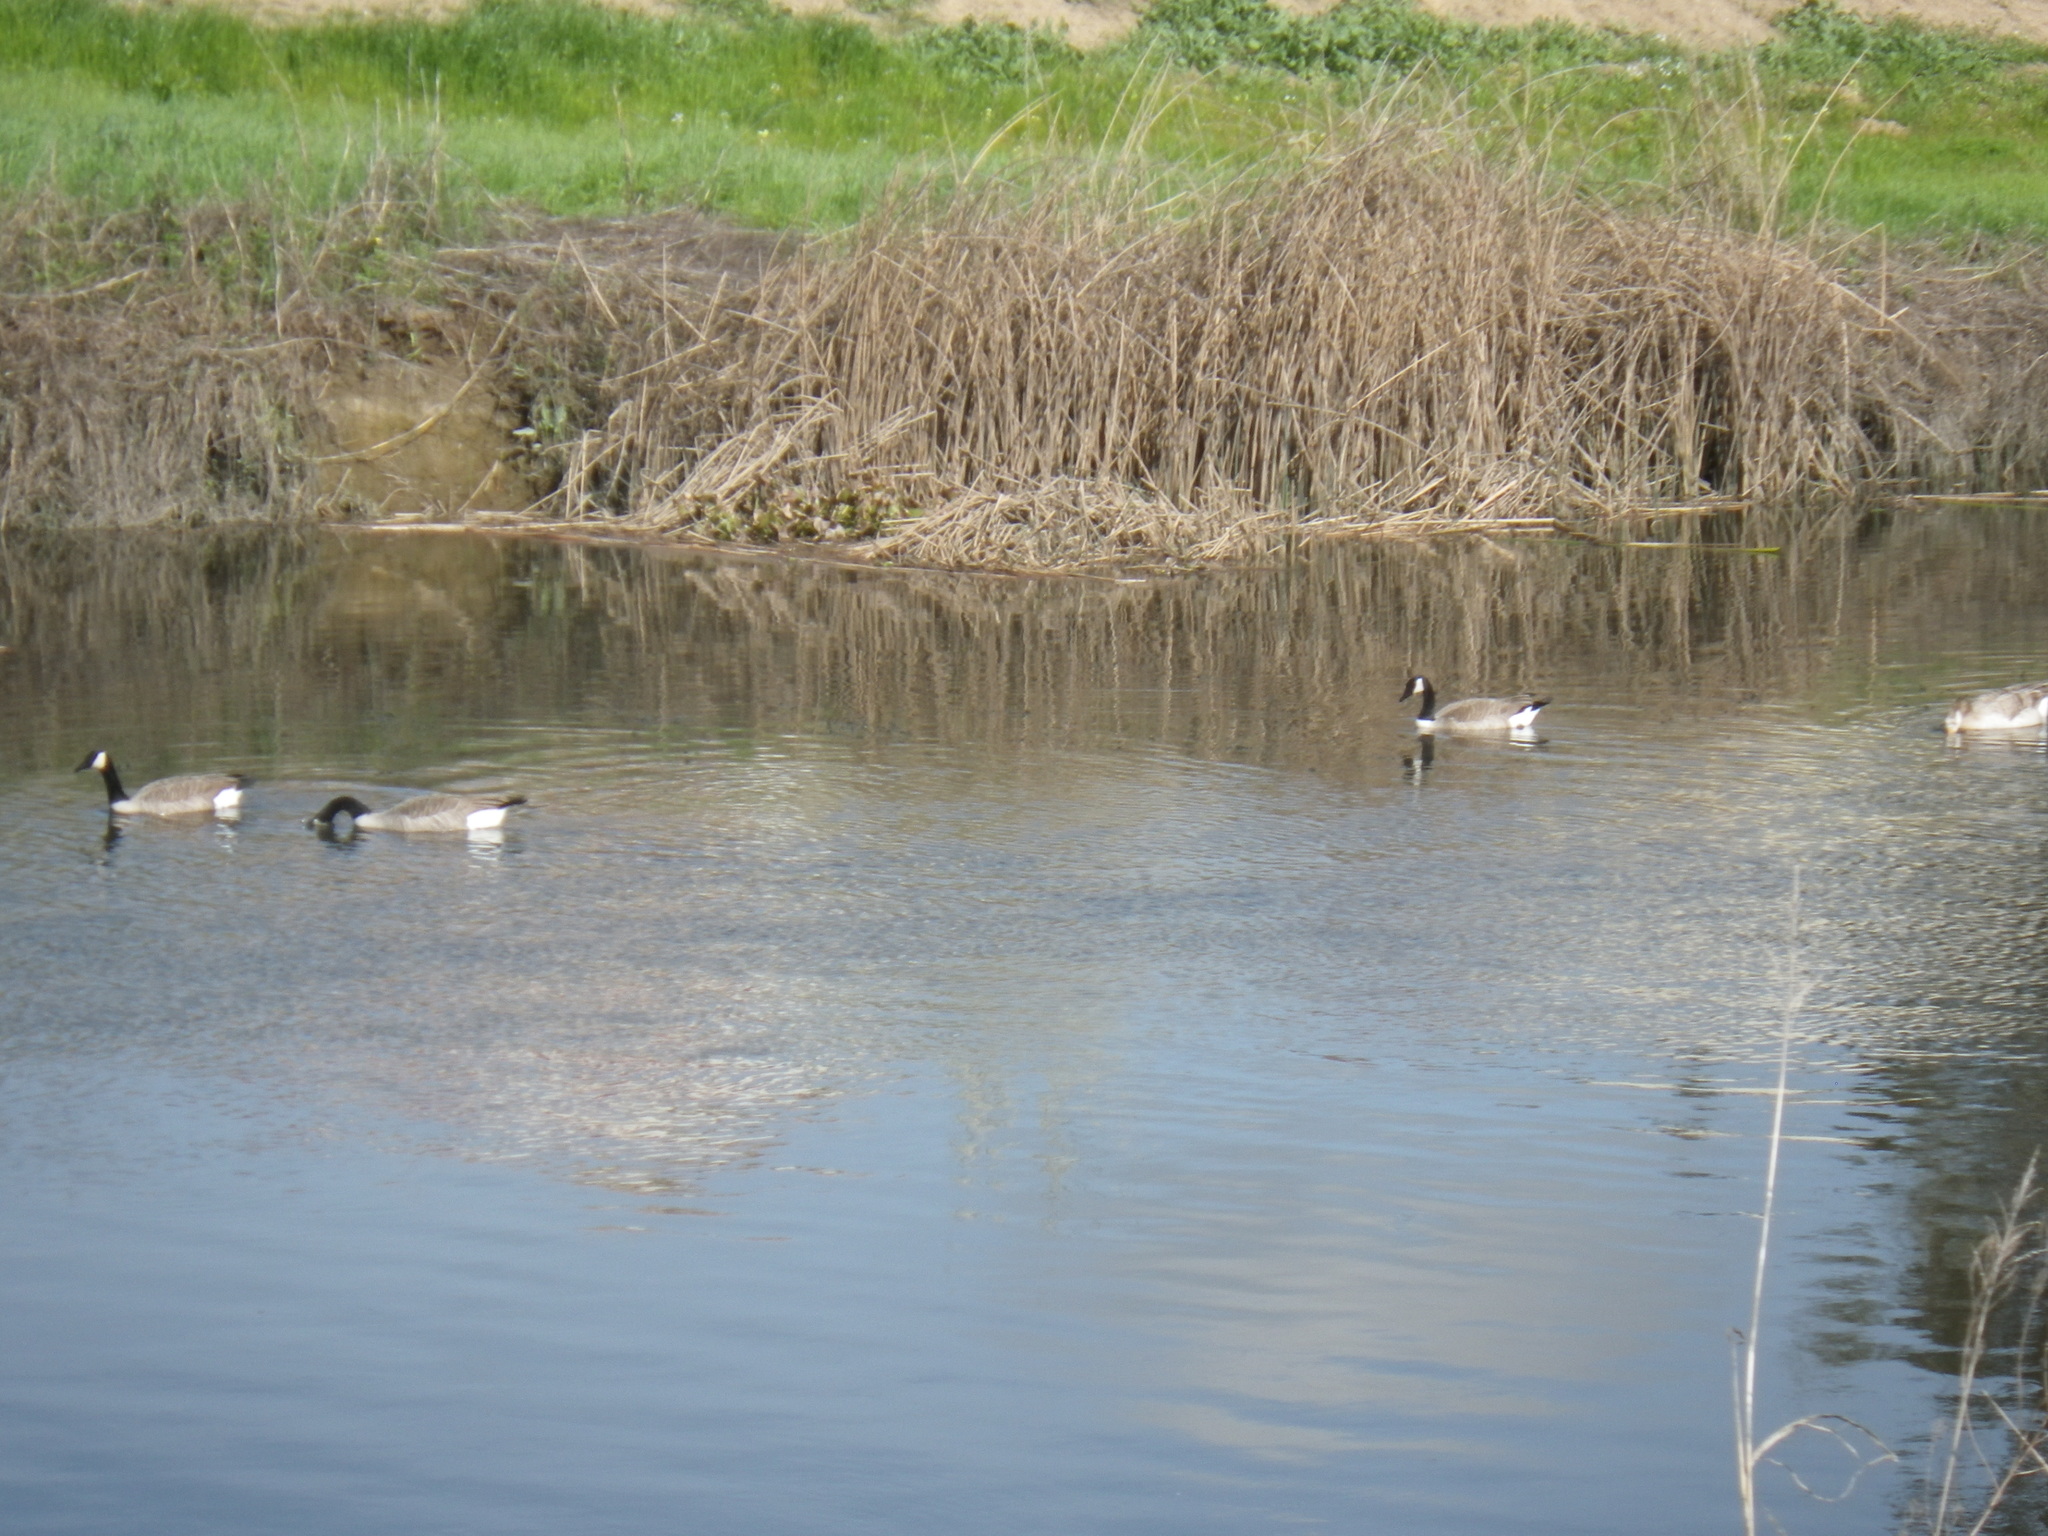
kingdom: Animalia
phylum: Chordata
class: Aves
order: Anseriformes
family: Anatidae
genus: Branta
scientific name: Branta canadensis
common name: Canada goose
